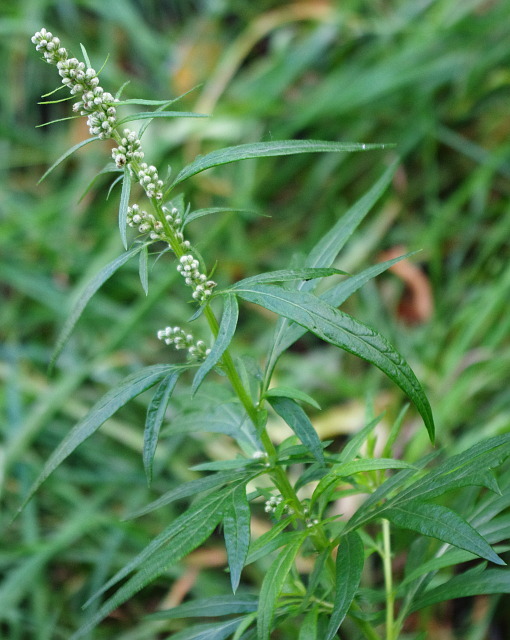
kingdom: Plantae
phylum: Tracheophyta
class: Magnoliopsida
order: Asterales
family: Asteraceae
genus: Artemisia
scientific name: Artemisia vulgaris
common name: Mugwort
